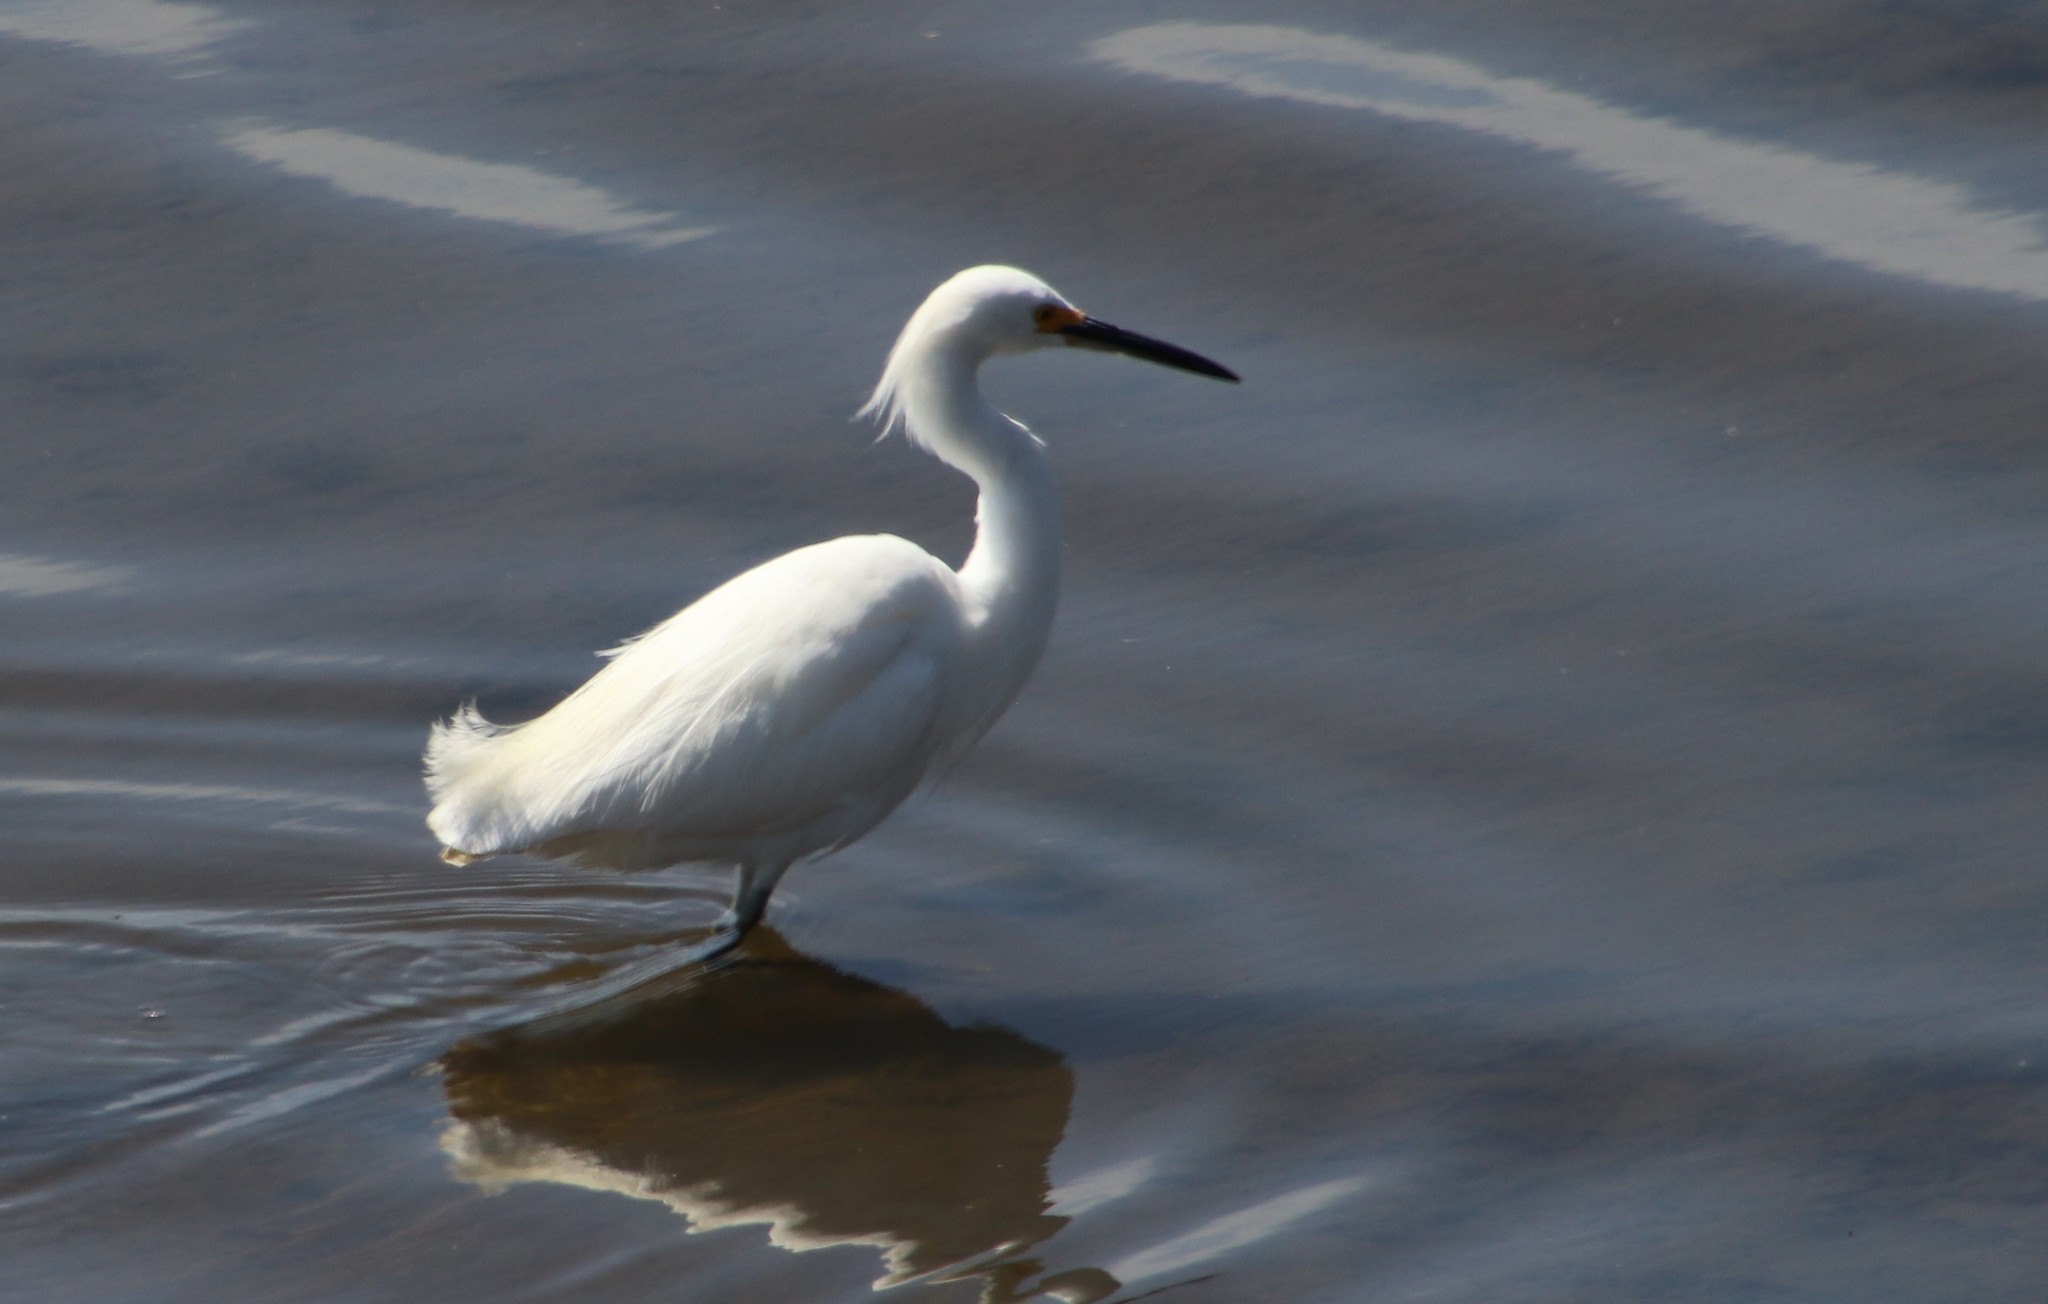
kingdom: Animalia
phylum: Chordata
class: Aves
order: Pelecaniformes
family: Ardeidae
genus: Egretta
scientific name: Egretta thula
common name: Snowy egret
